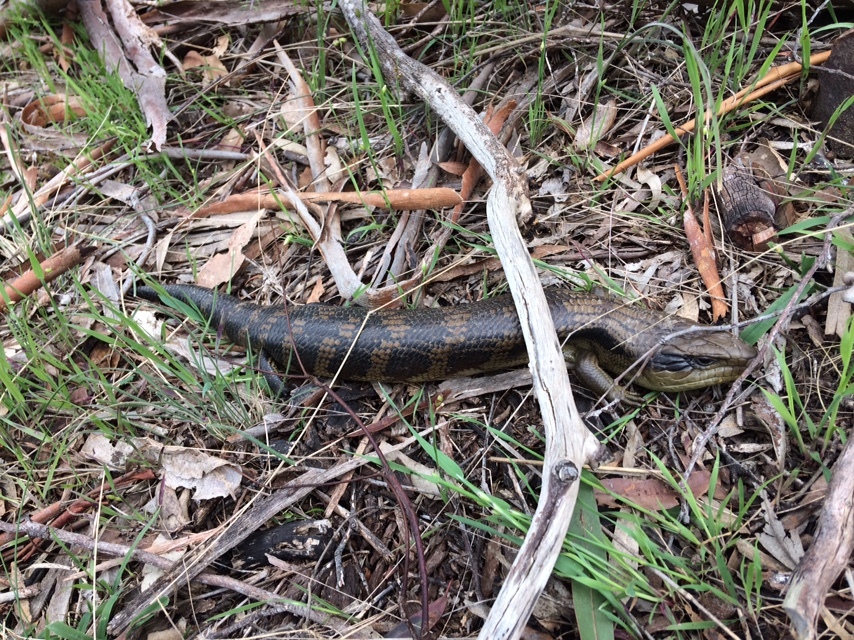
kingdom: Animalia
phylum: Chordata
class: Squamata
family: Scincidae
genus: Tiliqua
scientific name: Tiliqua scincoides
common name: Common bluetongue
